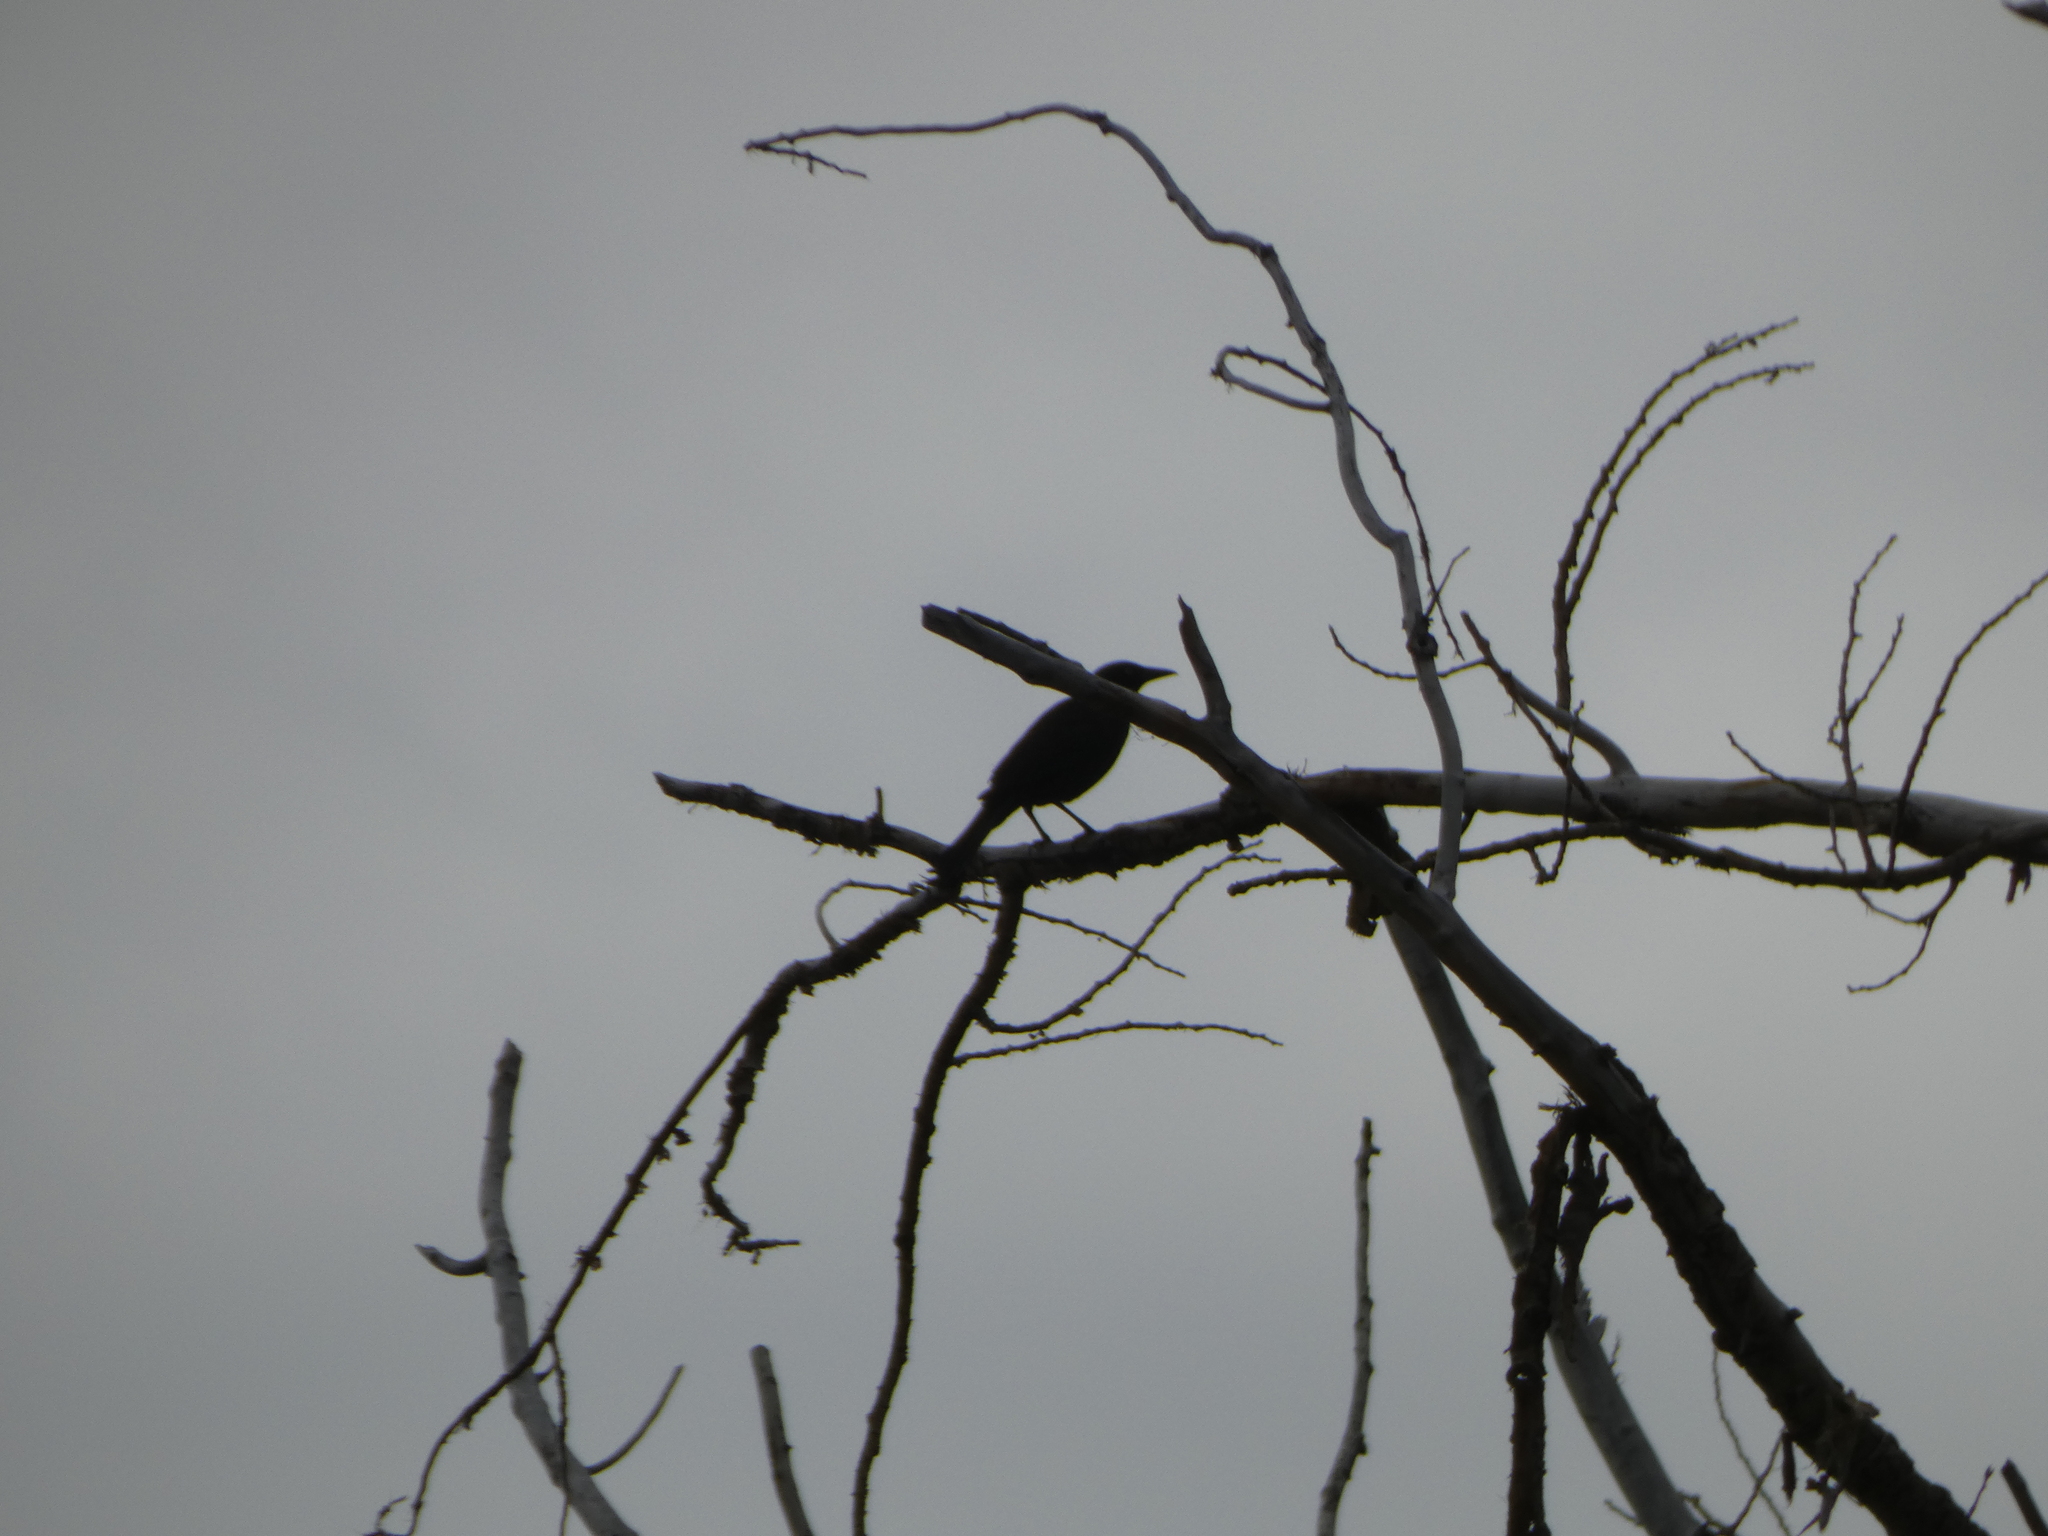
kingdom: Animalia
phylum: Chordata
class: Aves
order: Passeriformes
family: Icteridae
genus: Quiscalus
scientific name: Quiscalus quiscula
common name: Common grackle
